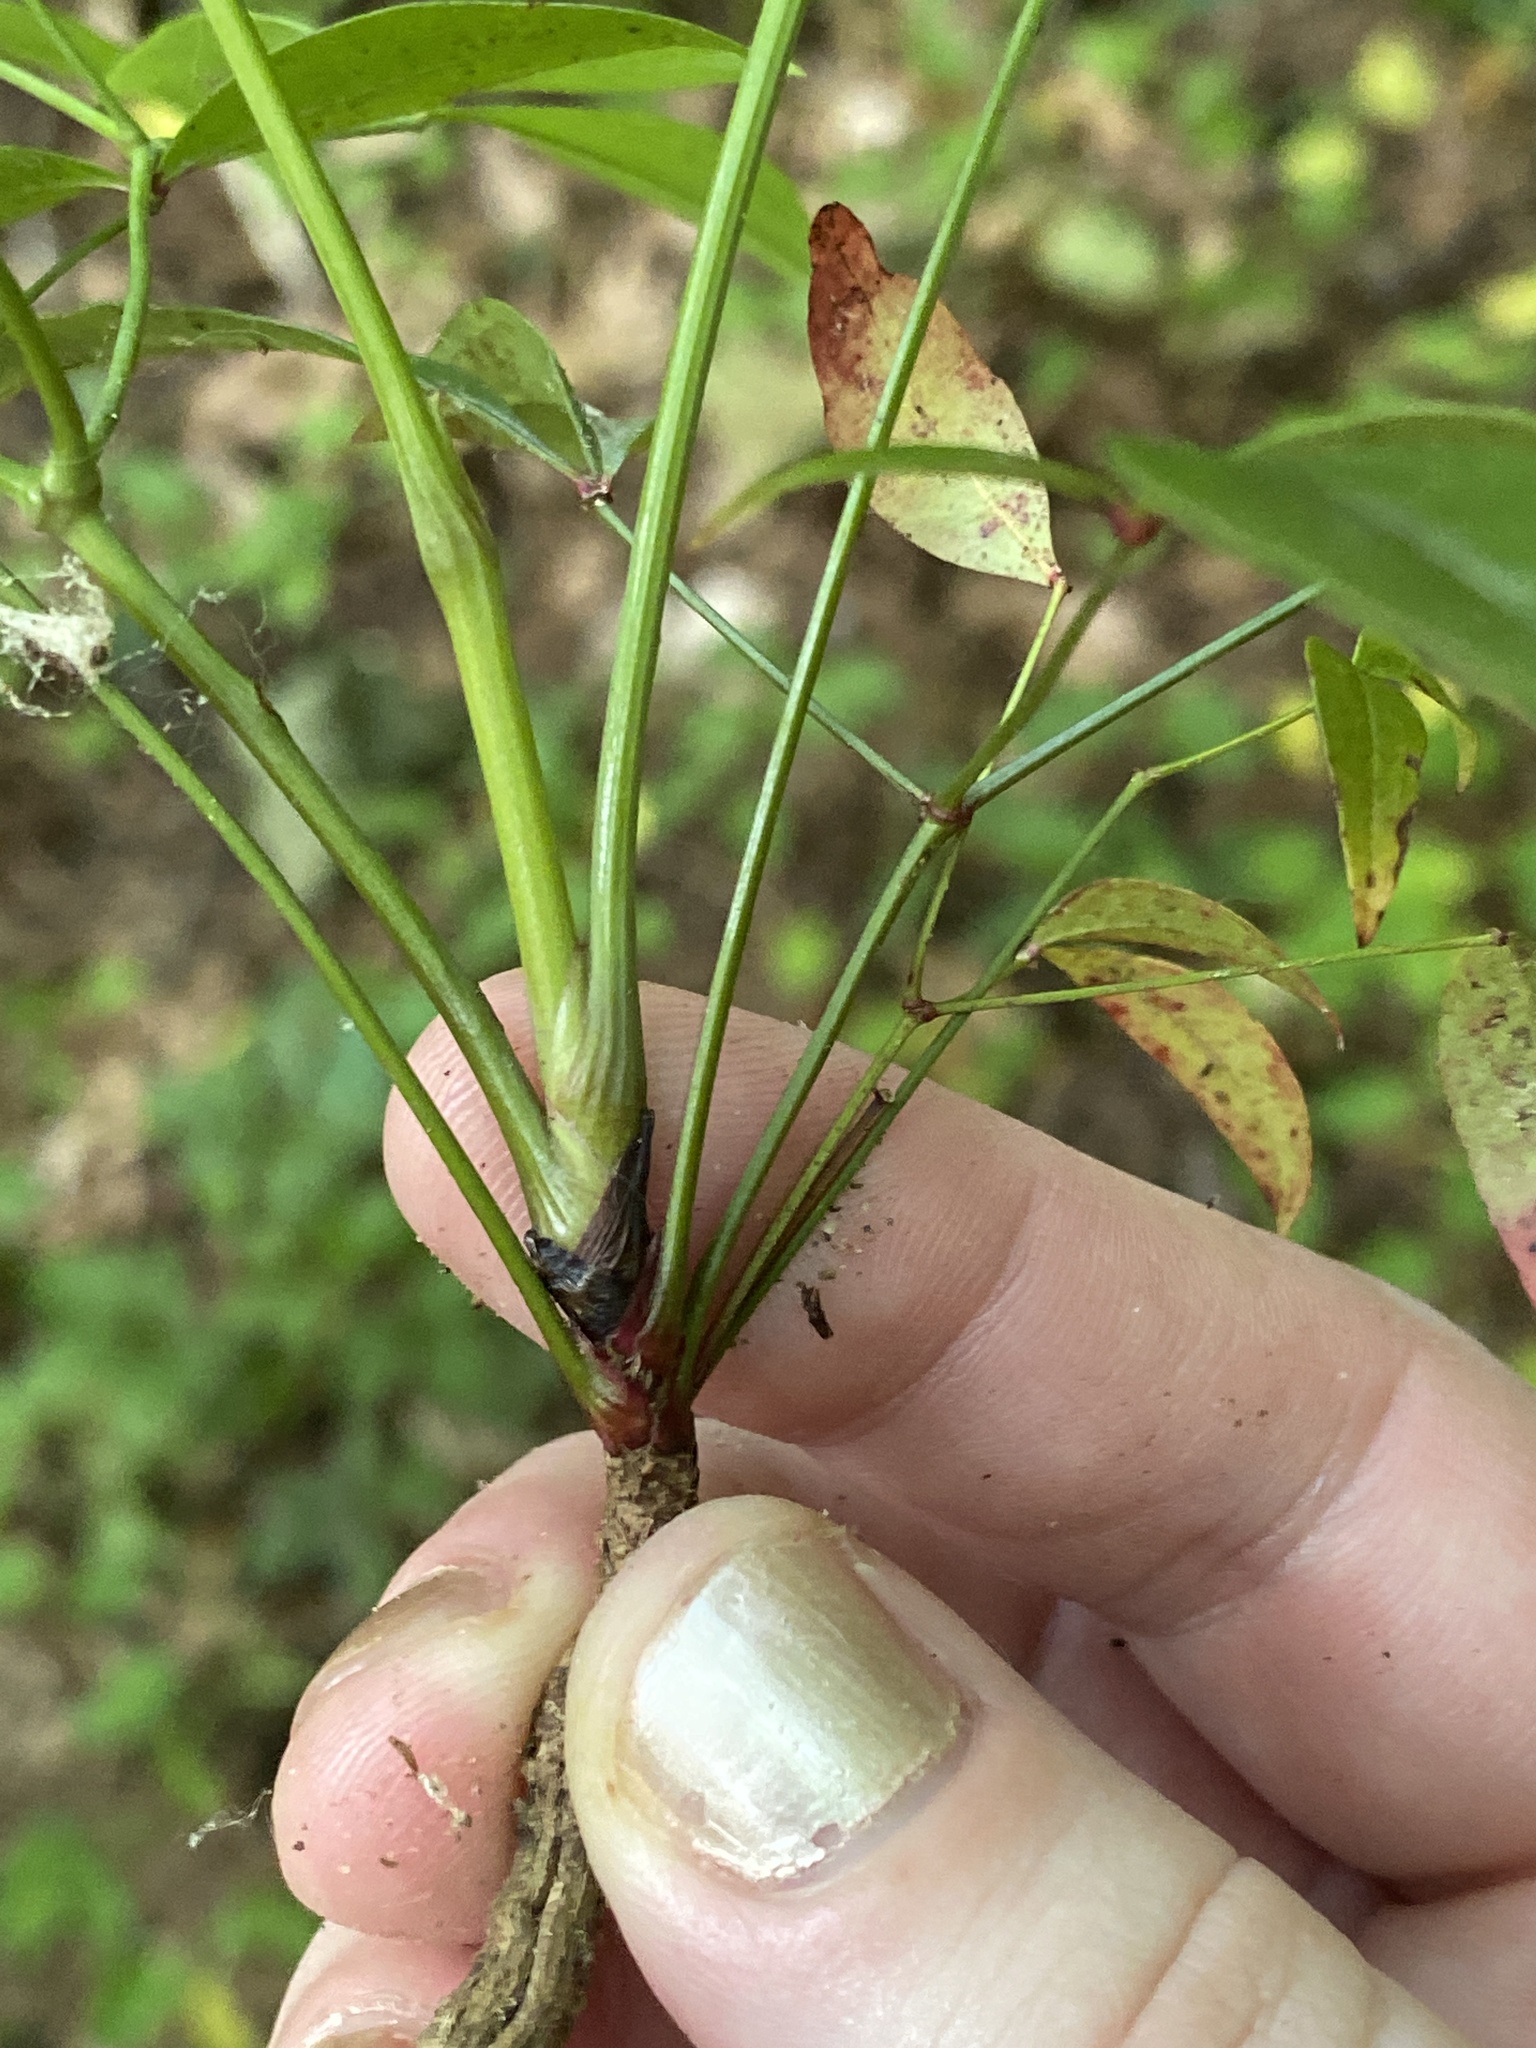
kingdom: Plantae
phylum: Tracheophyta
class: Magnoliopsida
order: Ranunculales
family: Berberidaceae
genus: Nandina
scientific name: Nandina domestica
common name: Sacred bamboo
